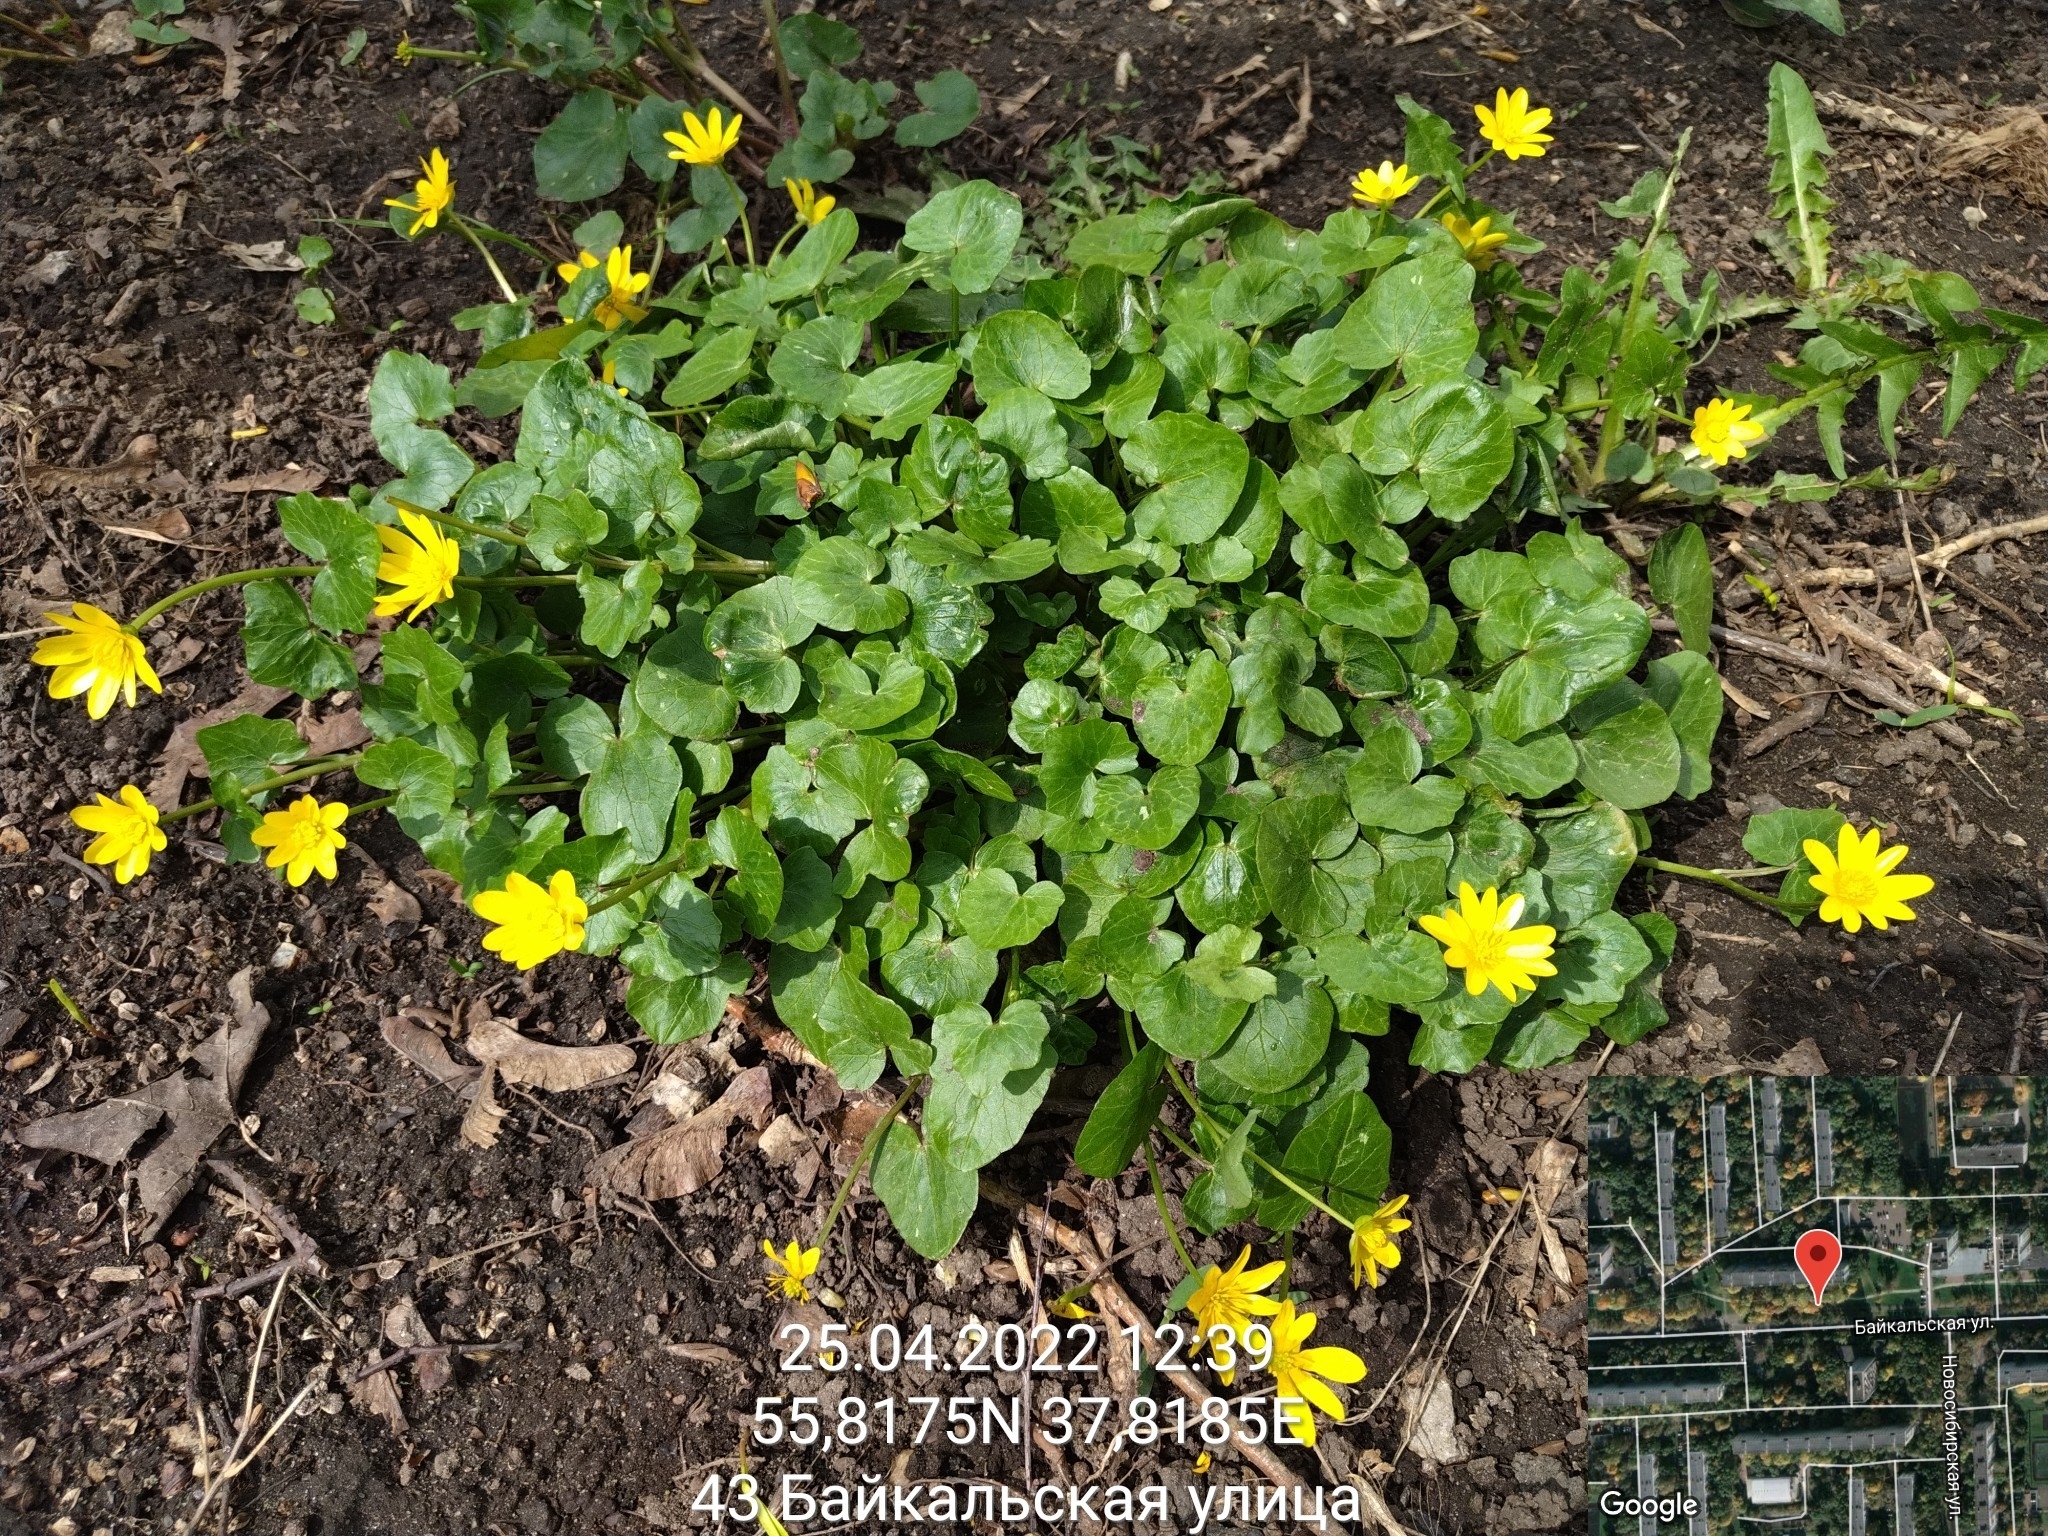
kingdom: Plantae
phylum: Tracheophyta
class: Magnoliopsida
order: Ranunculales
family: Ranunculaceae
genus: Ficaria
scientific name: Ficaria verna
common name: Lesser celandine
